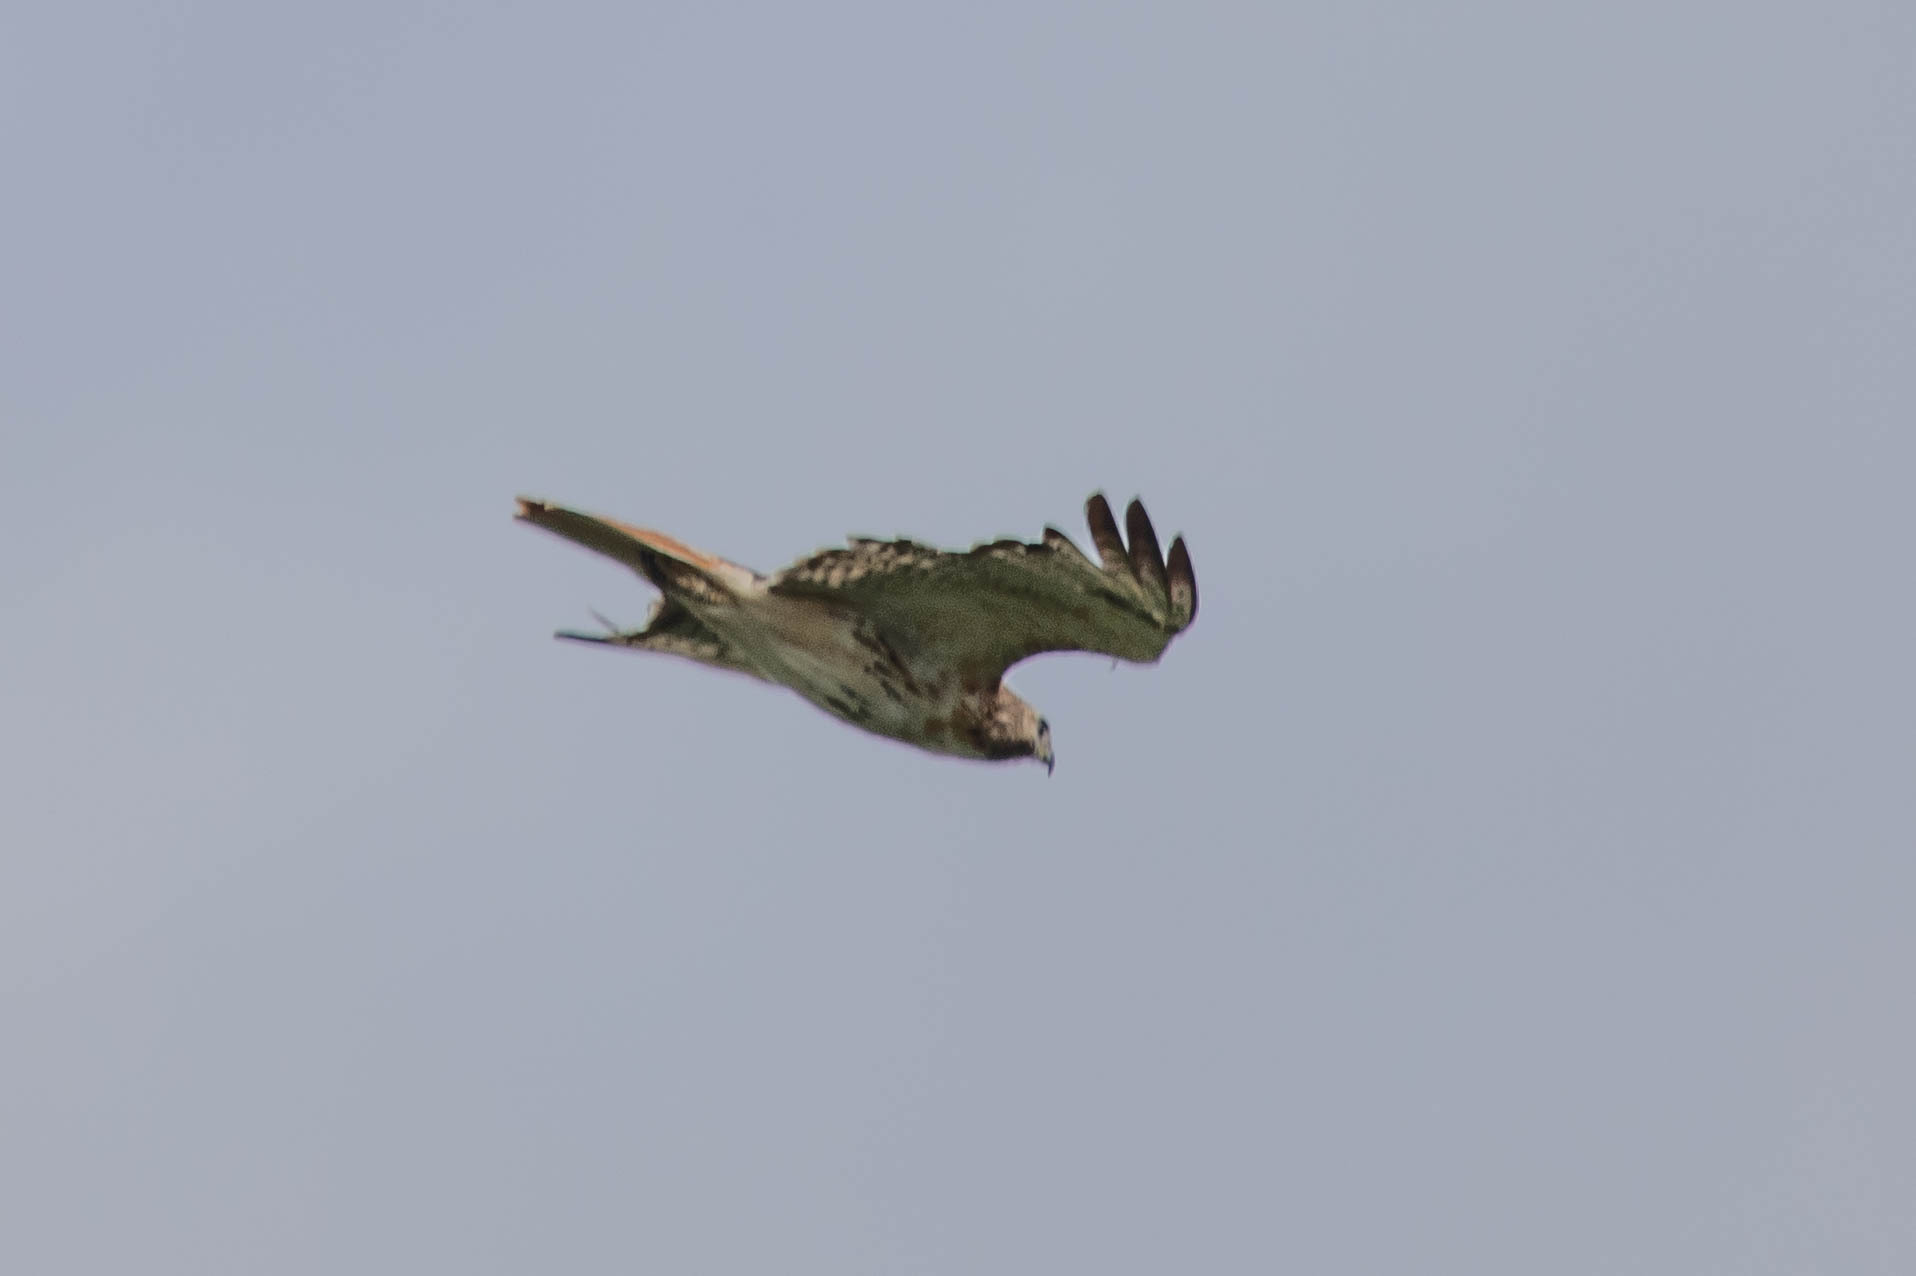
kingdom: Animalia
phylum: Chordata
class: Aves
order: Accipitriformes
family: Accipitridae
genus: Buteo
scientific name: Buteo jamaicensis
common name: Red-tailed hawk
